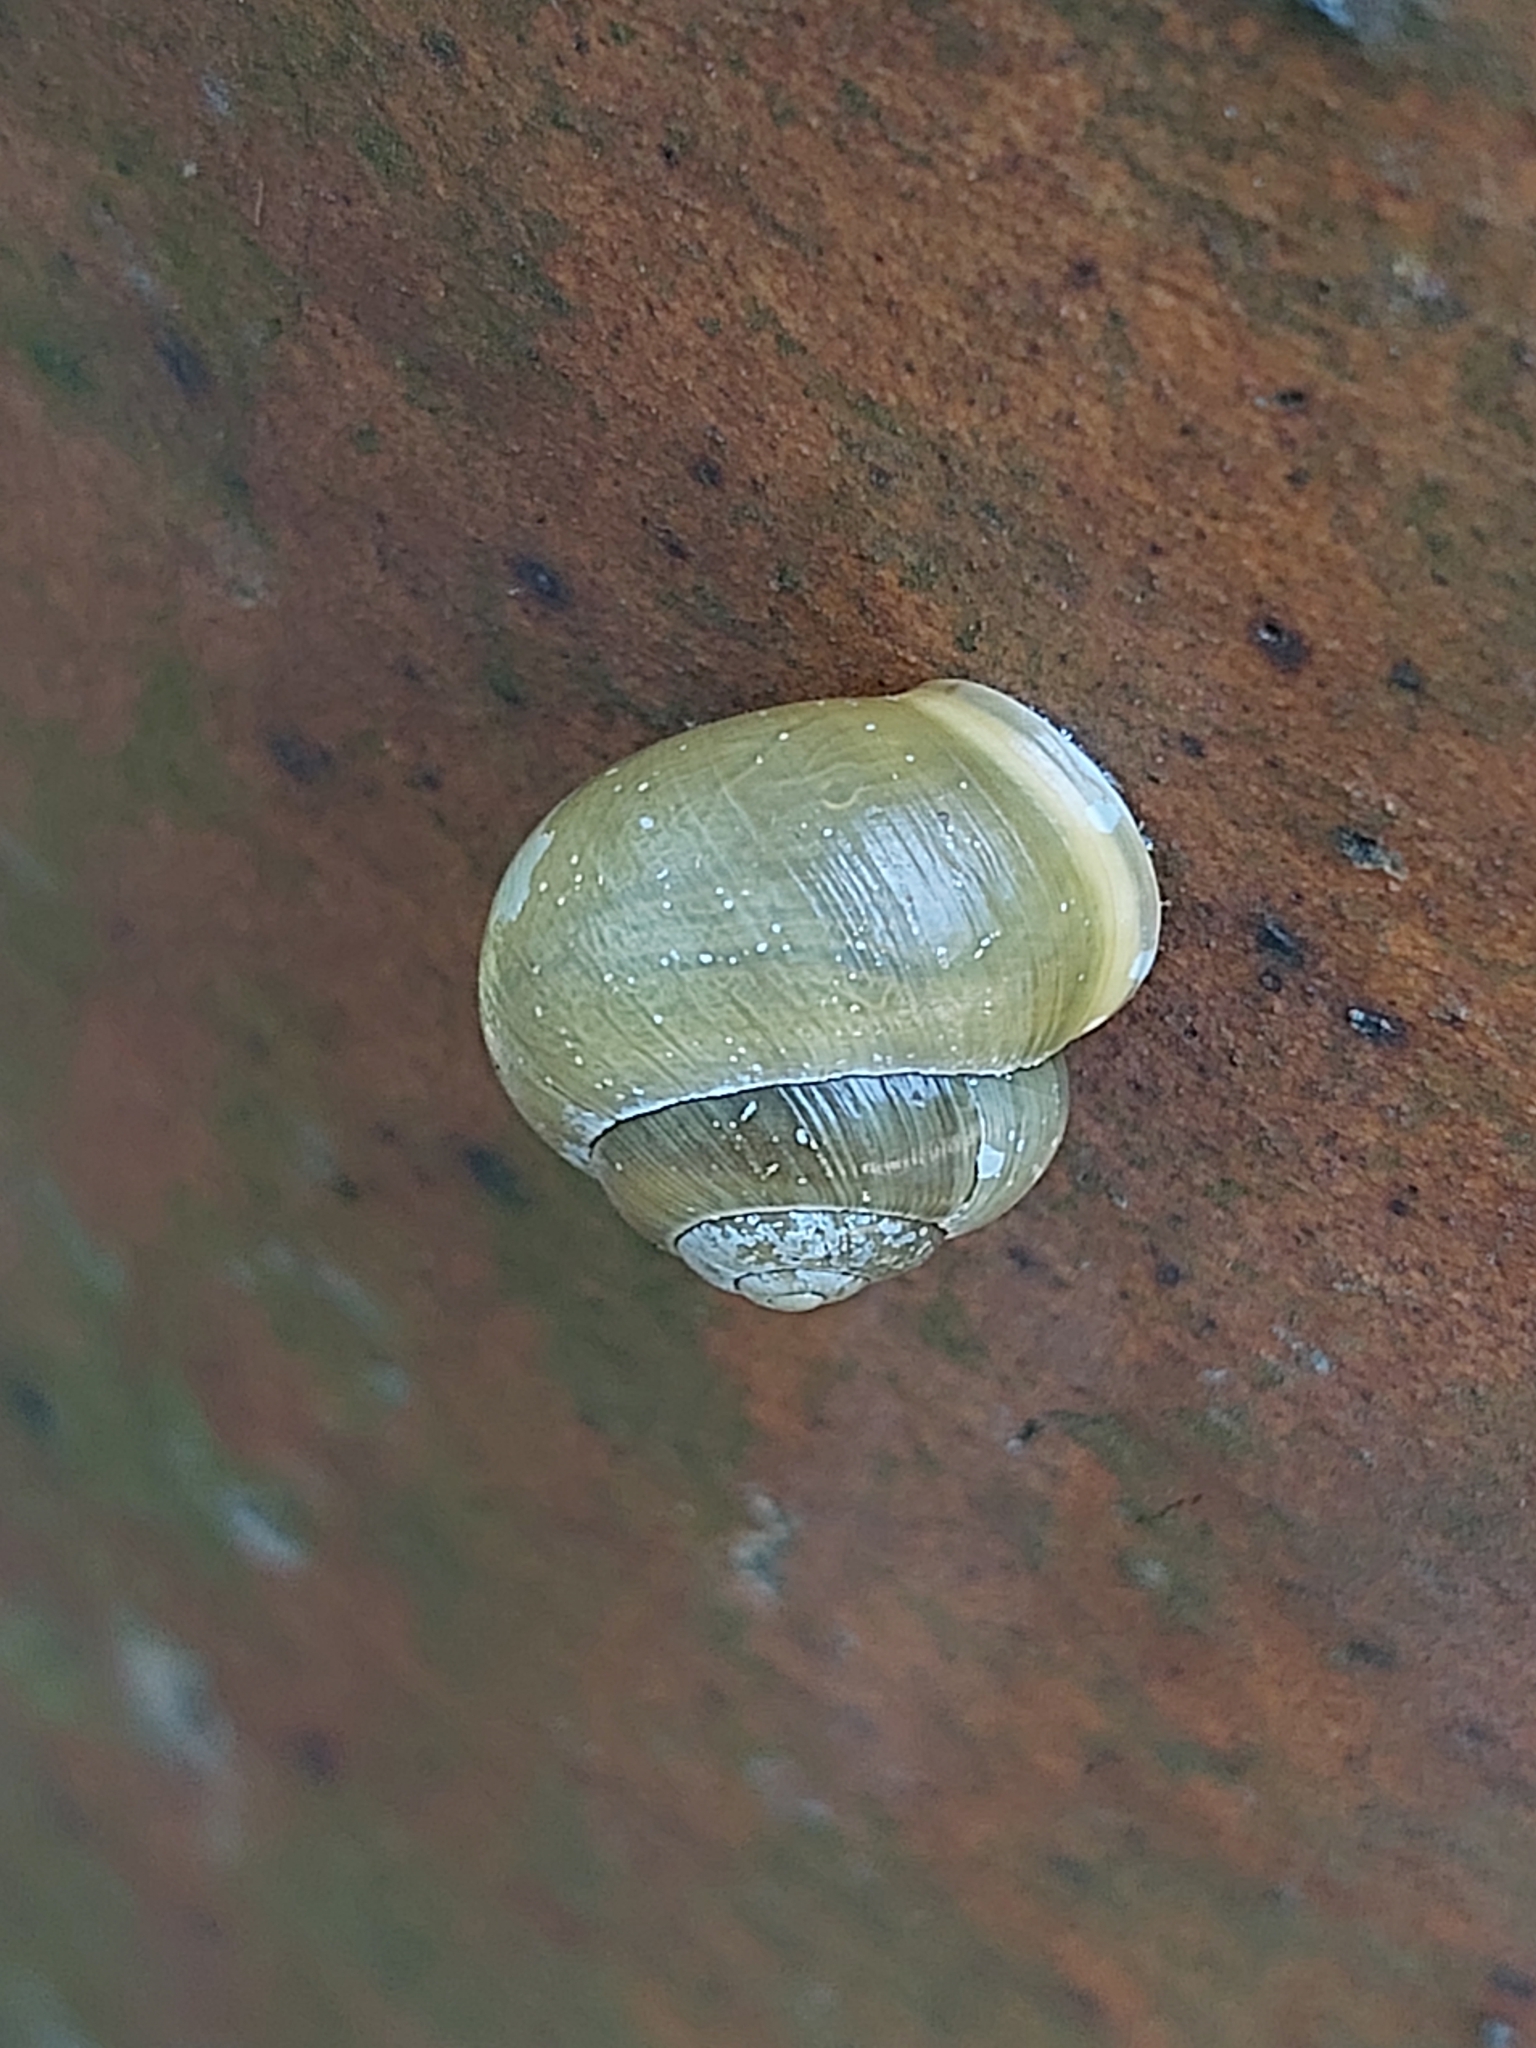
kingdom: Animalia
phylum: Mollusca
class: Gastropoda
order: Stylommatophora
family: Helicidae
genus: Cepaea
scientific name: Cepaea hortensis
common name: White-lip gardensnail
